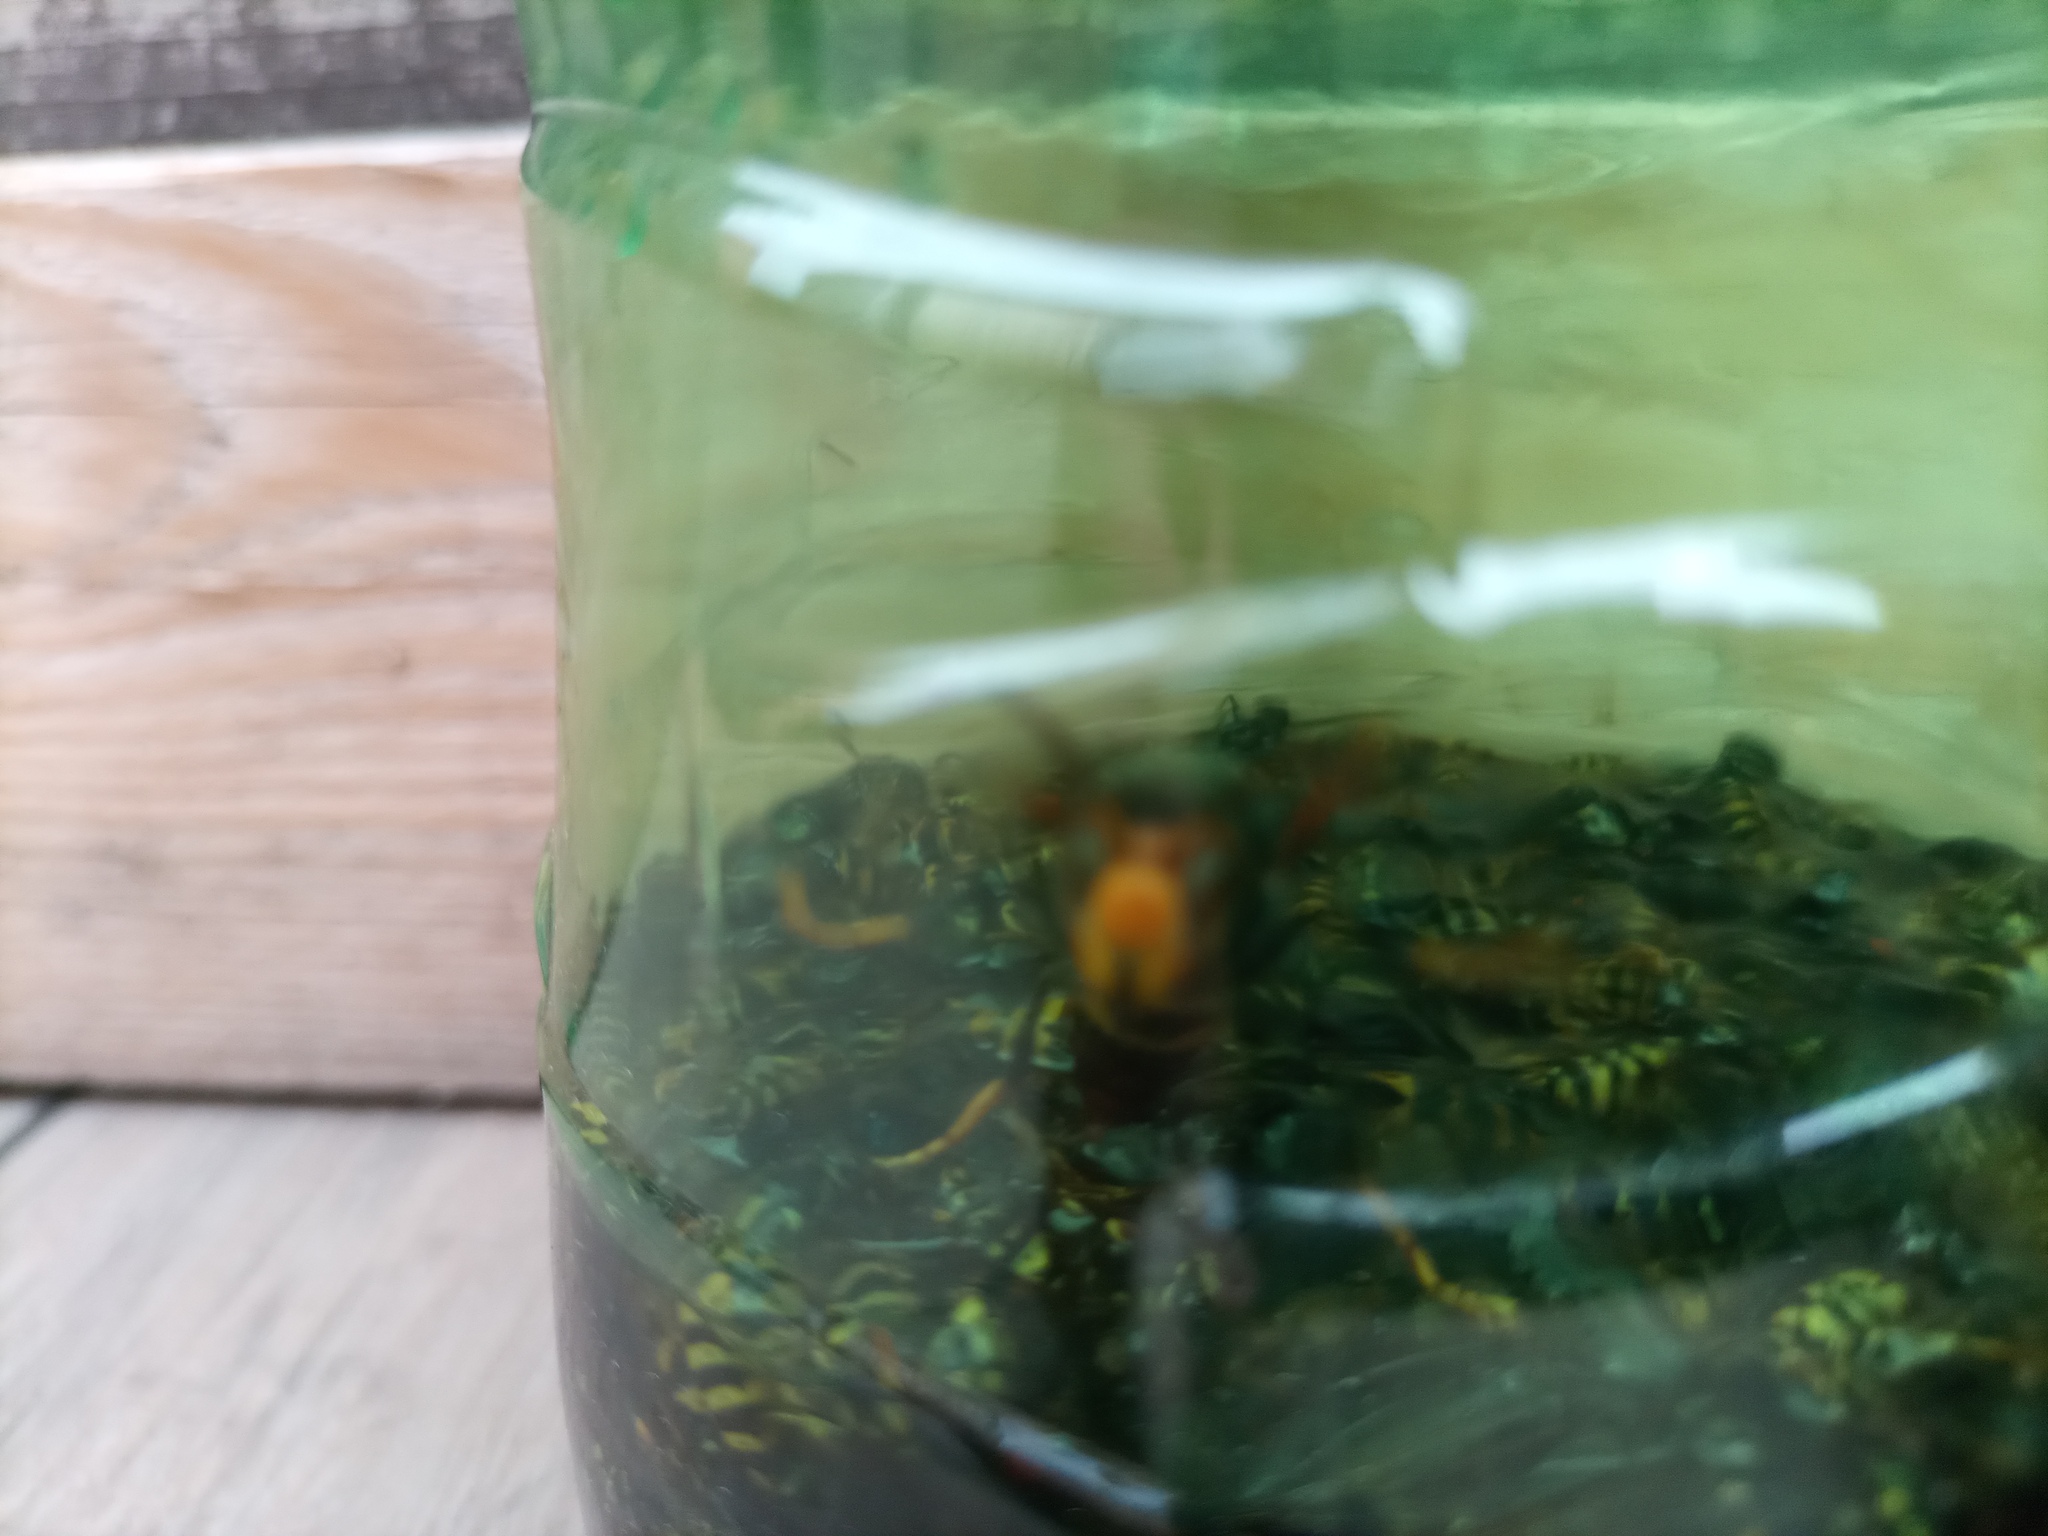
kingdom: Animalia
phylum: Arthropoda
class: Insecta
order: Hymenoptera
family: Vespidae
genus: Vespa
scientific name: Vespa velutina
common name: Asian hornet
